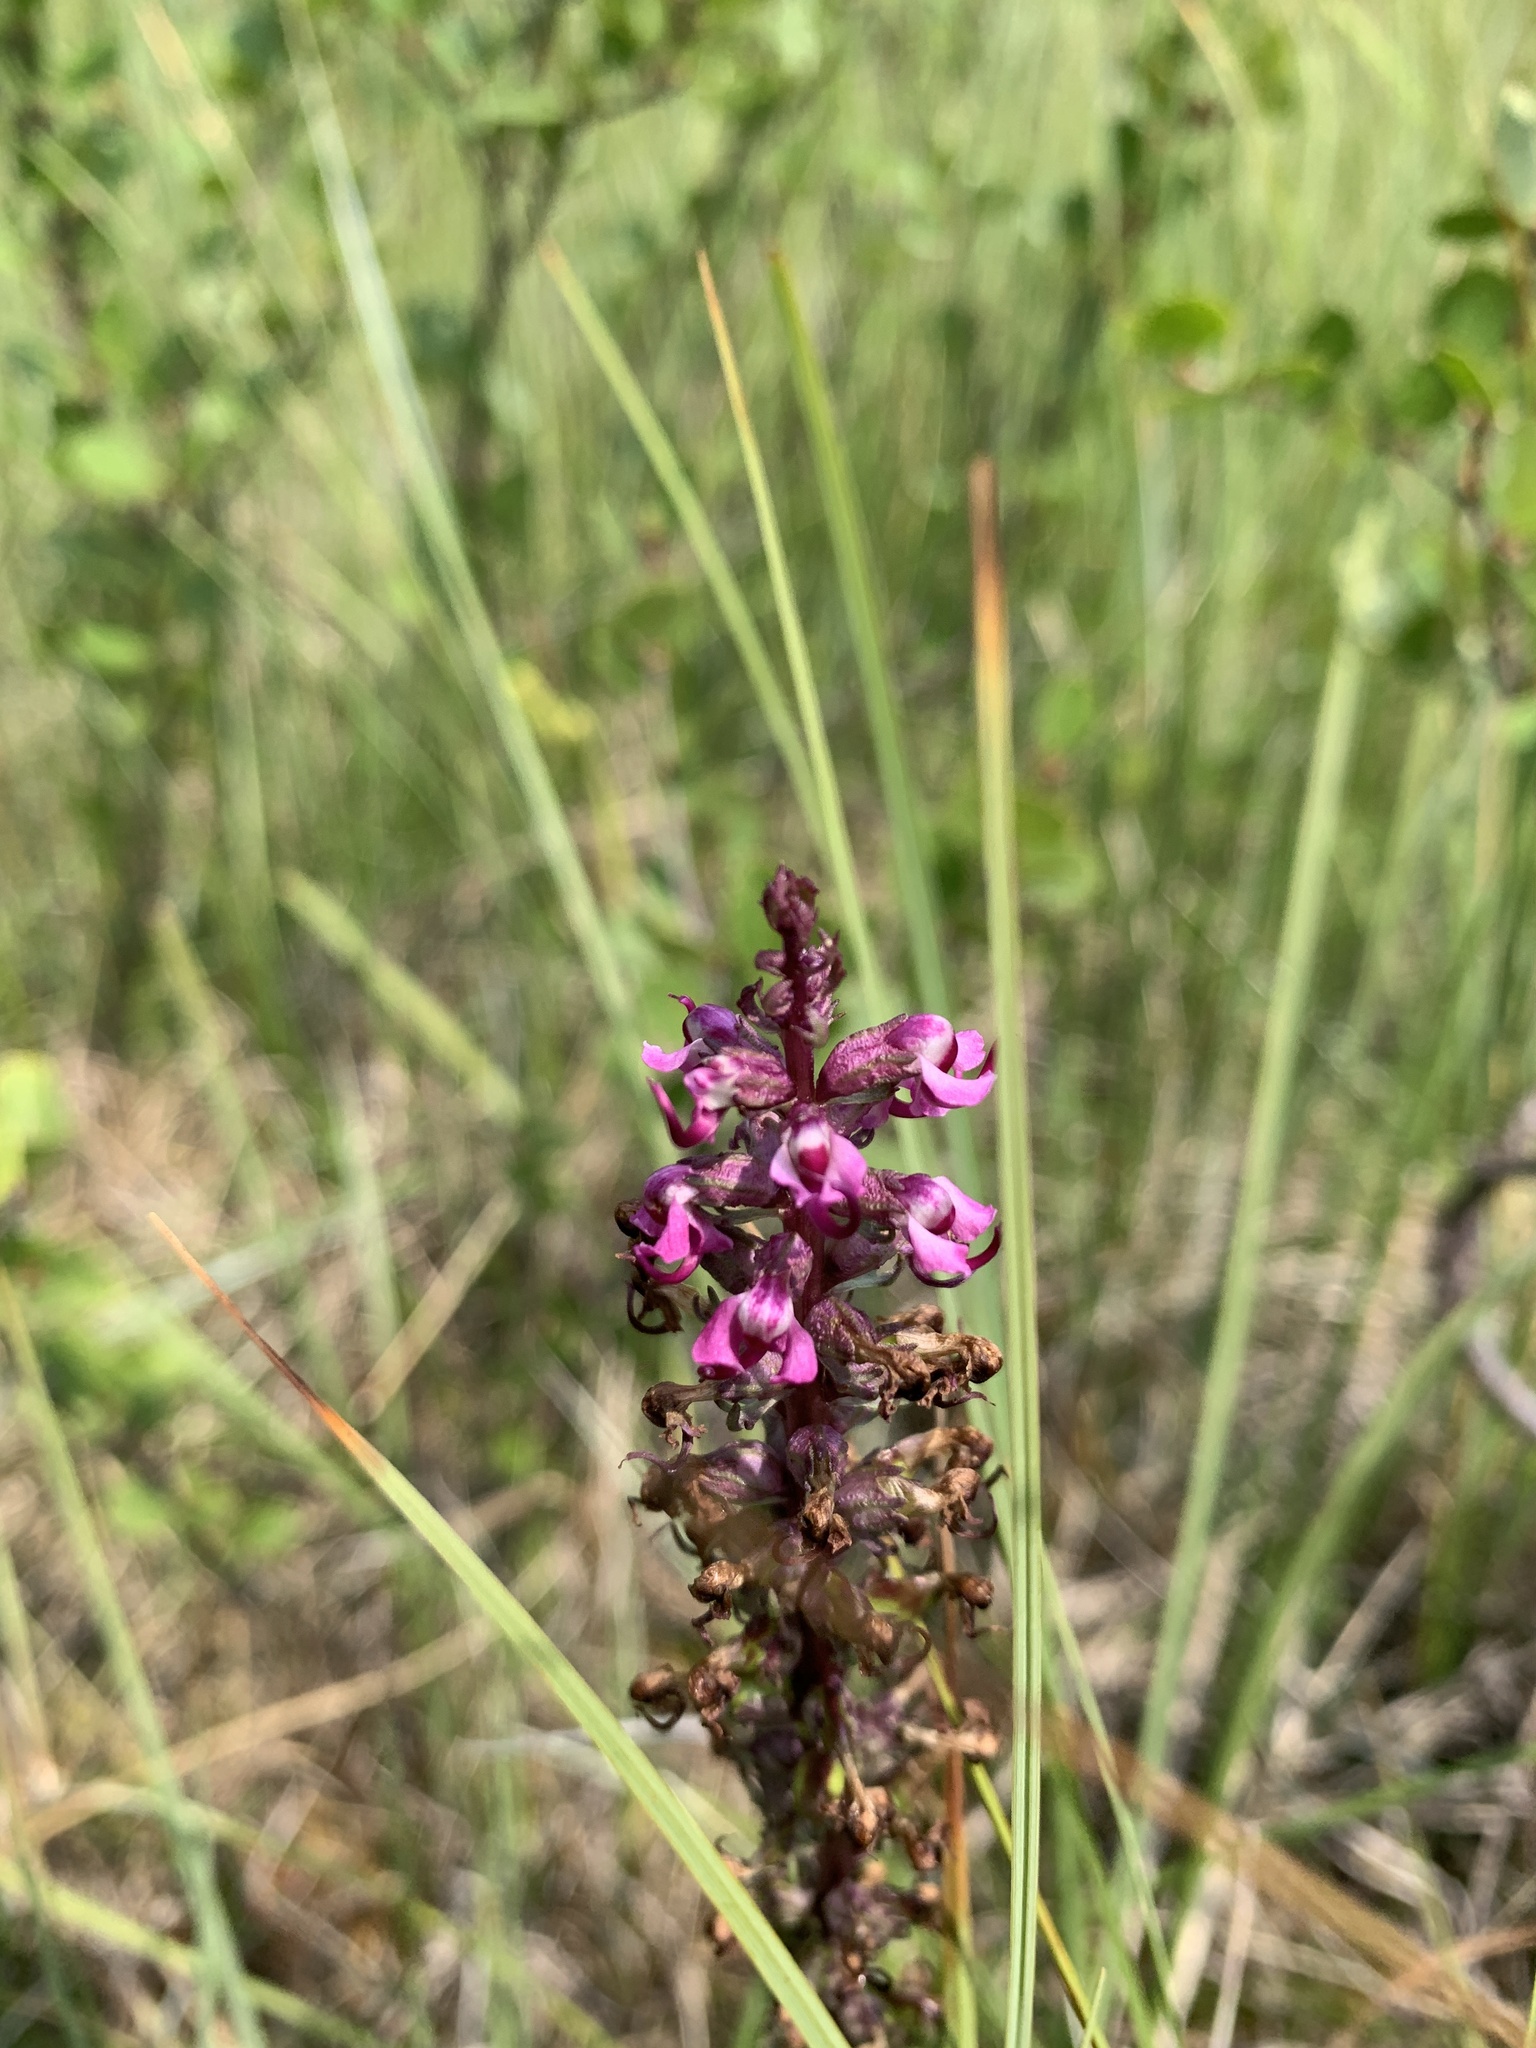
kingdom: Plantae
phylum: Tracheophyta
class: Magnoliopsida
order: Lamiales
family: Orobanchaceae
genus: Pedicularis
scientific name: Pedicularis groenlandica
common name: Elephant's-head
